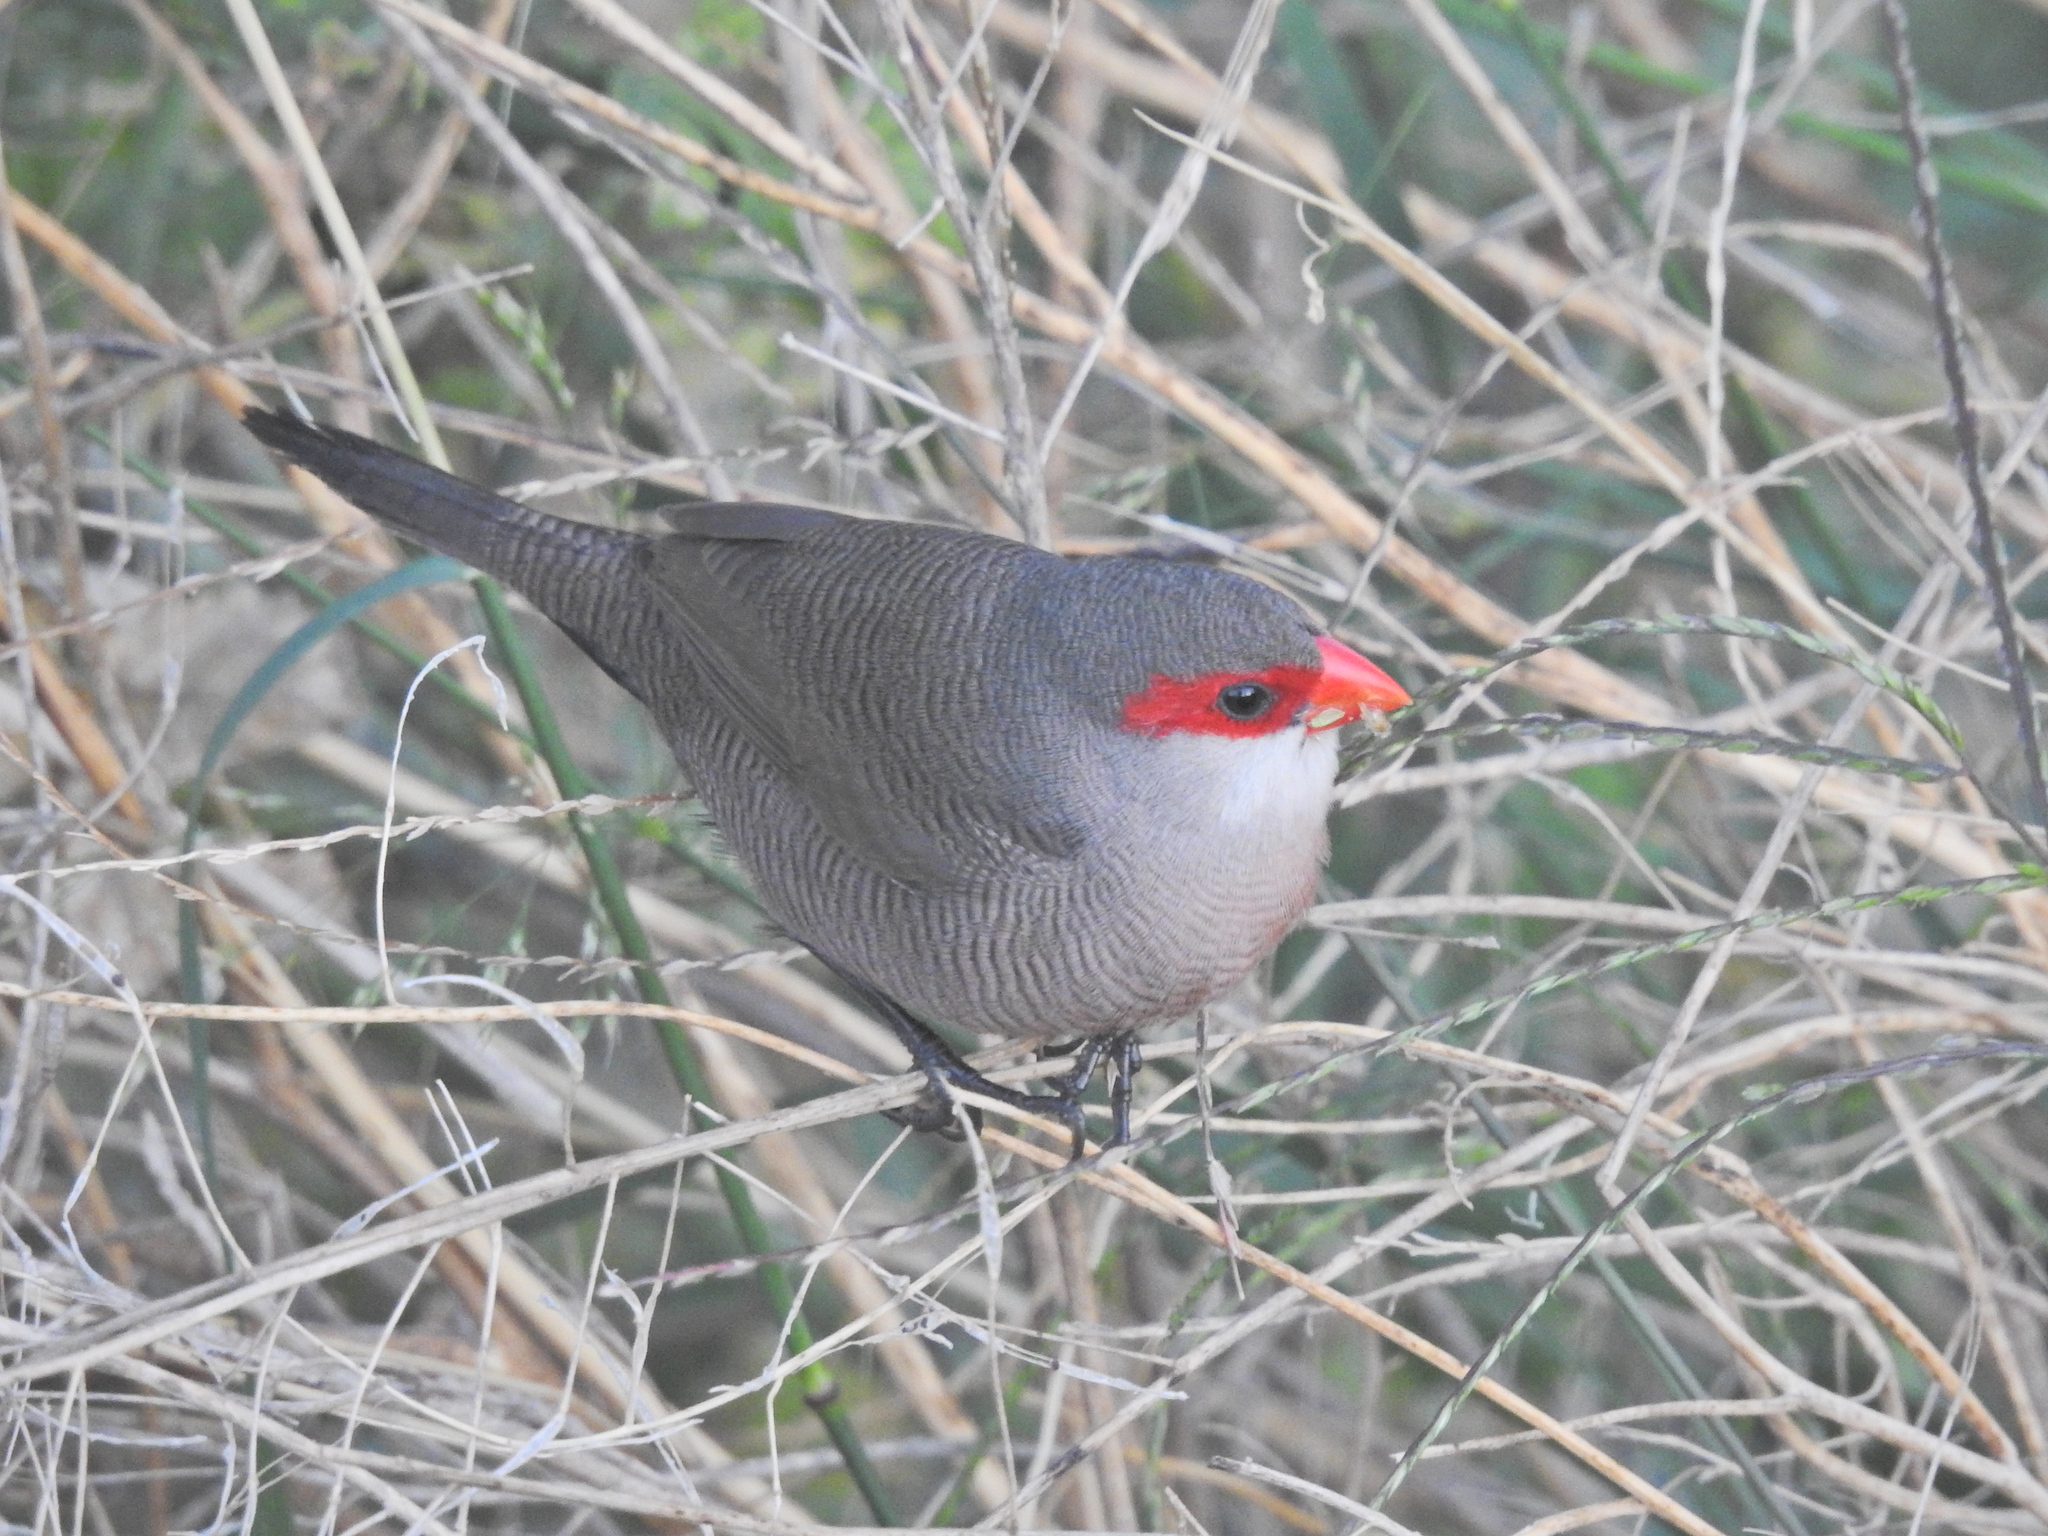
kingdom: Animalia
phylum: Chordata
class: Aves
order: Passeriformes
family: Estrildidae
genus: Estrilda
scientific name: Estrilda astrild
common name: Common waxbill
